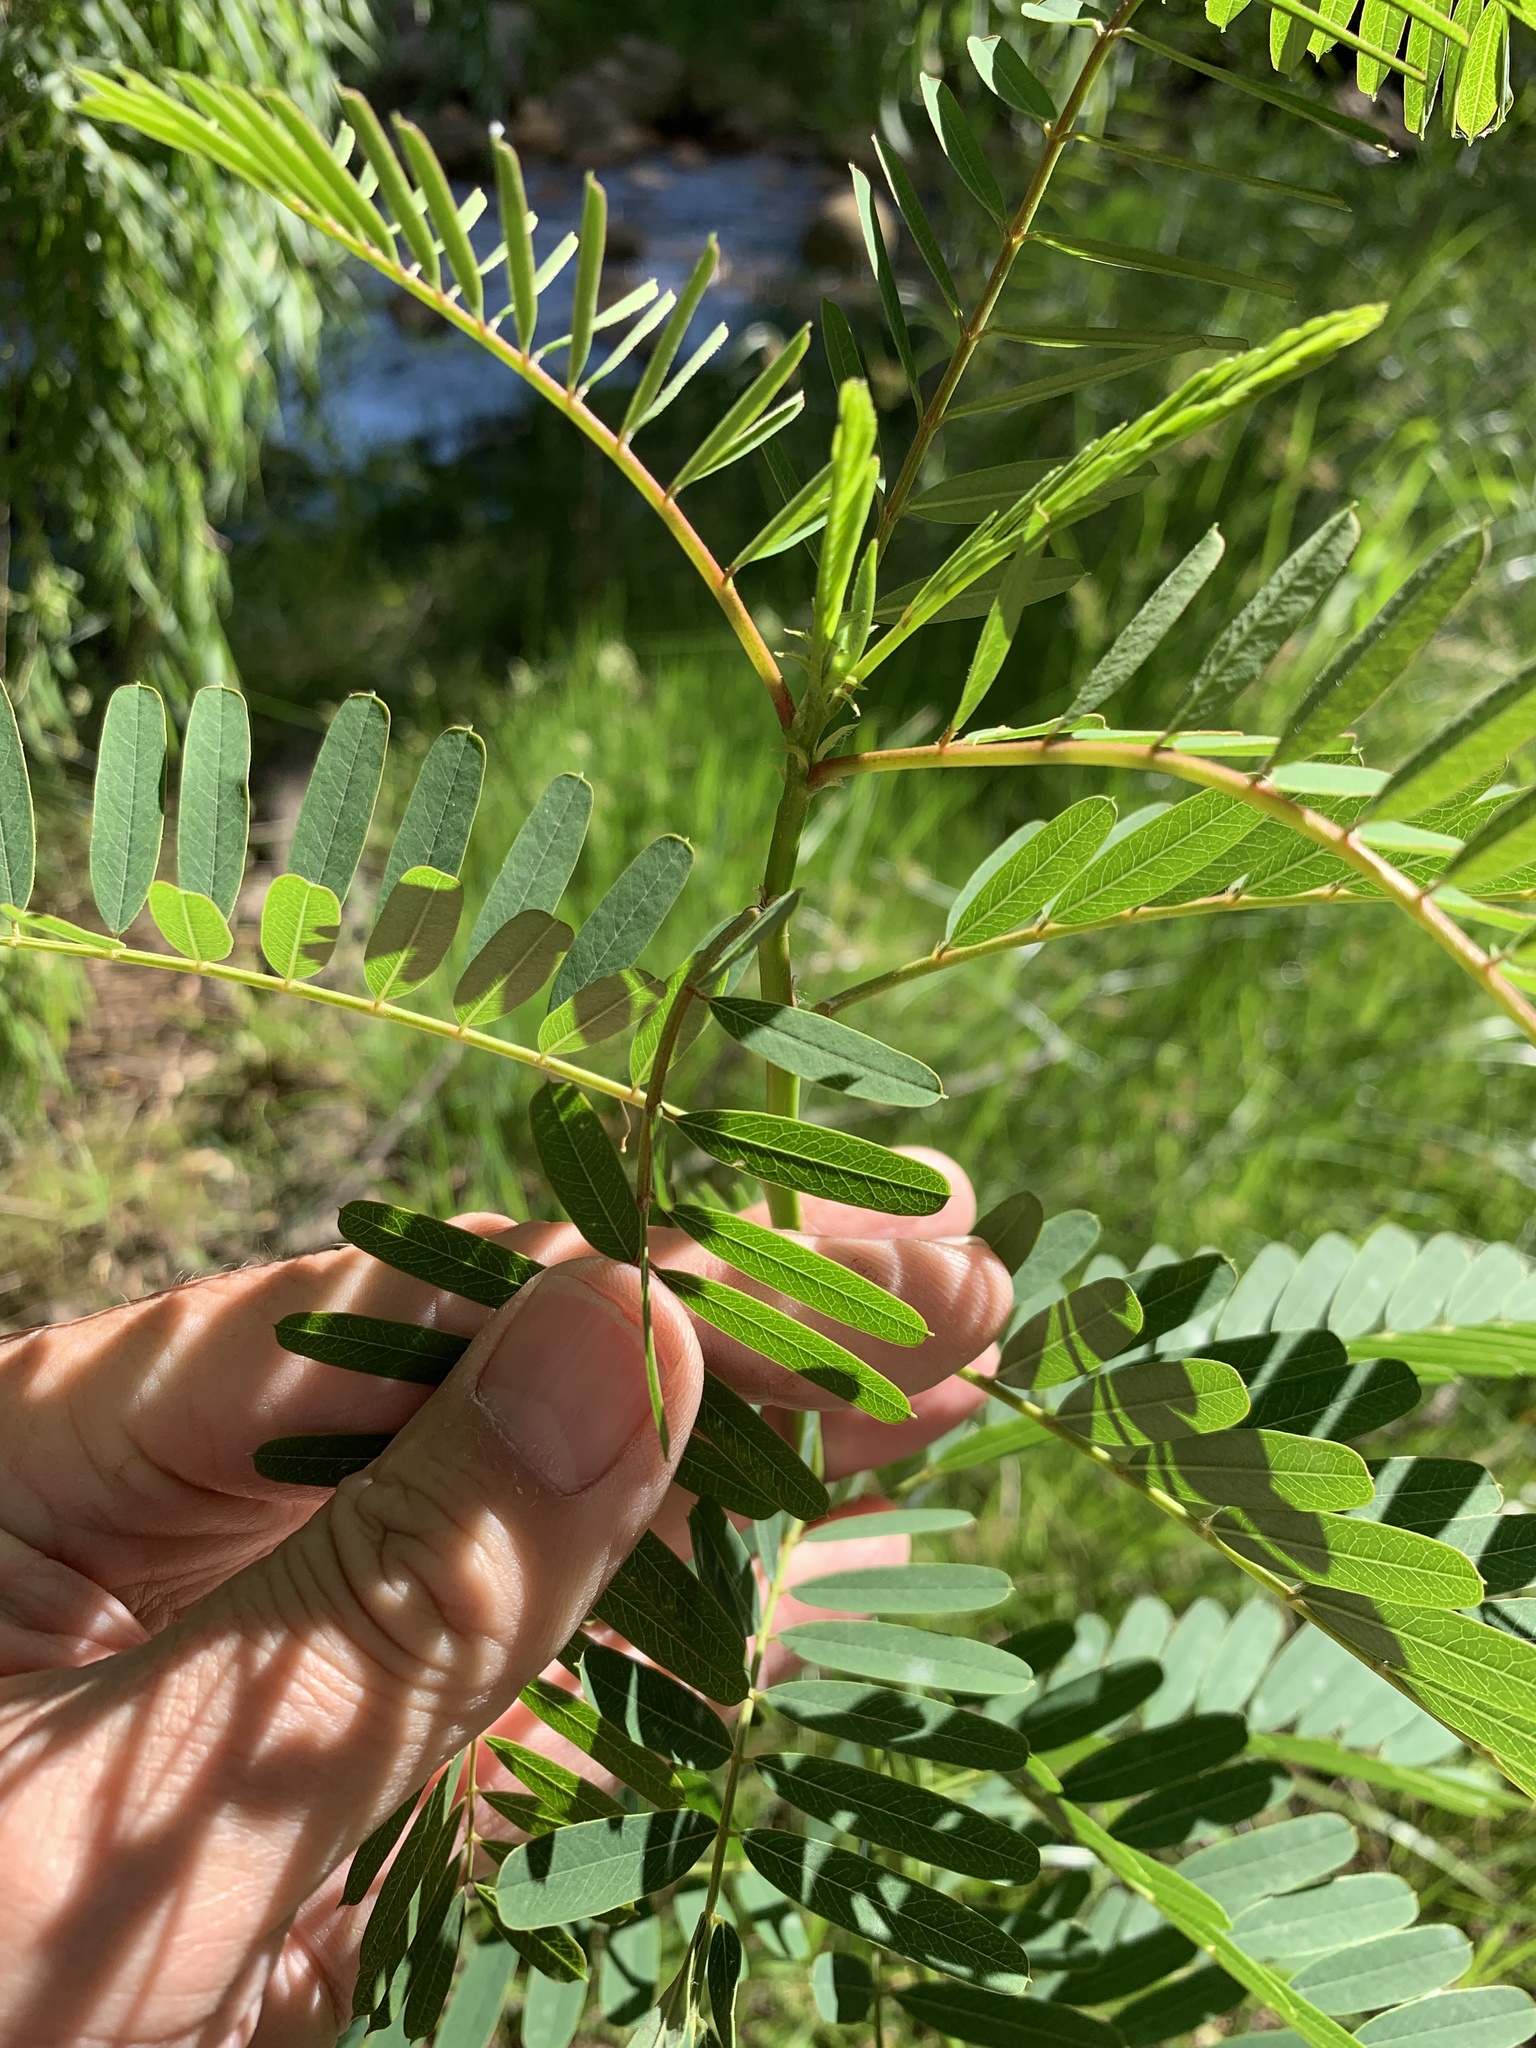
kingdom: Plantae
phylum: Tracheophyta
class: Magnoliopsida
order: Fabales
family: Fabaceae
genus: Sesbania
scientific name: Sesbania punicea
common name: Rattlebox
